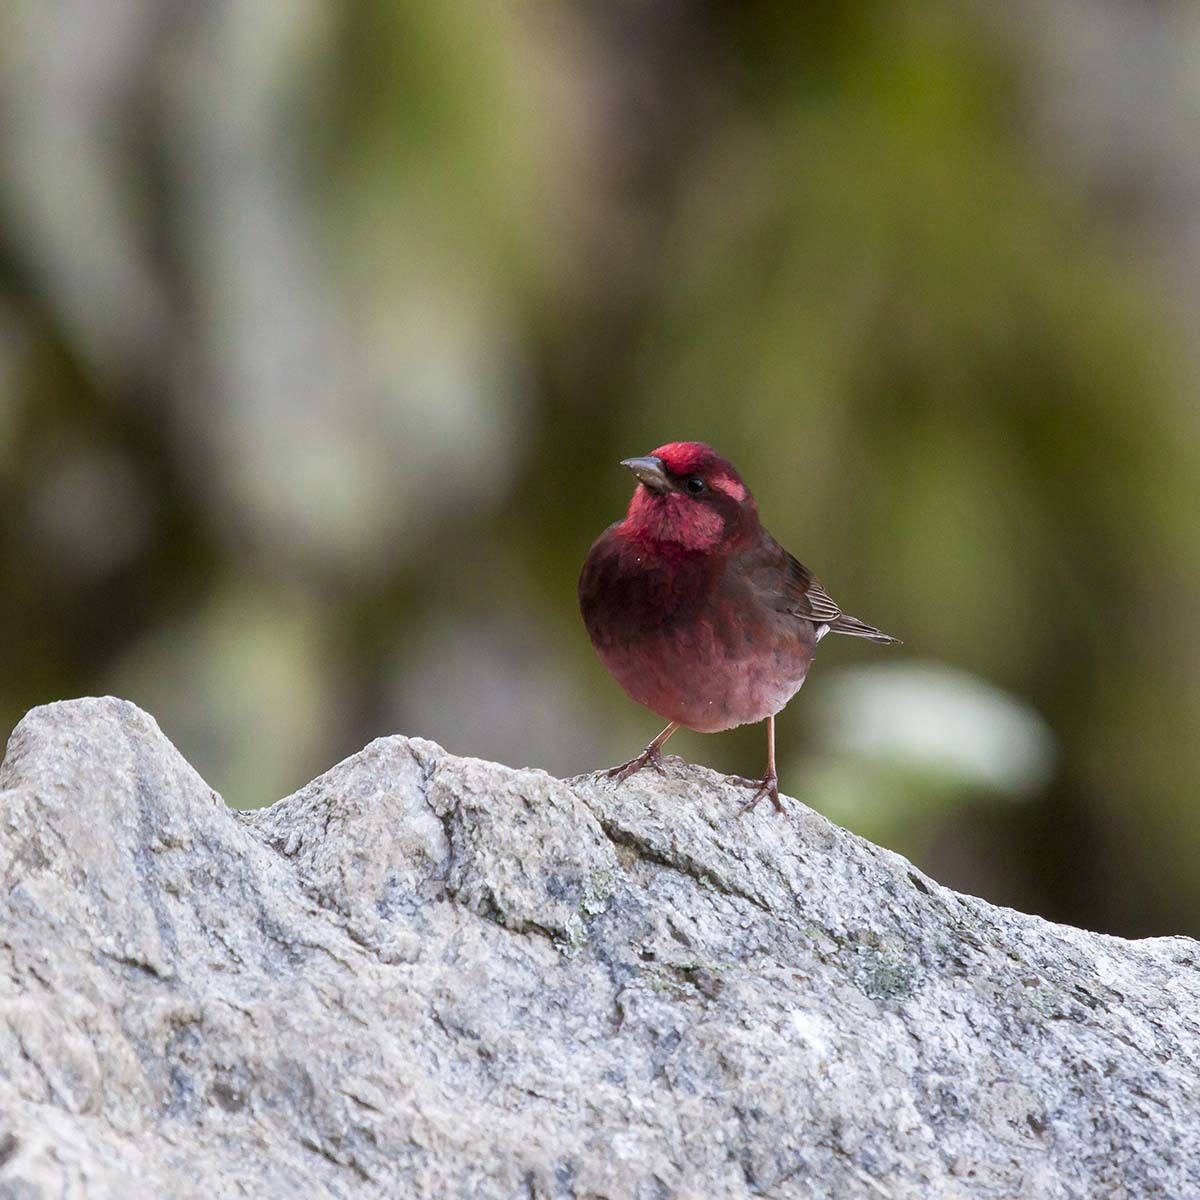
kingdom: Animalia
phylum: Chordata
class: Aves
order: Passeriformes
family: Fringillidae
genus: Procarduelis
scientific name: Procarduelis nipalensis
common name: Dark-breasted rosefinch
